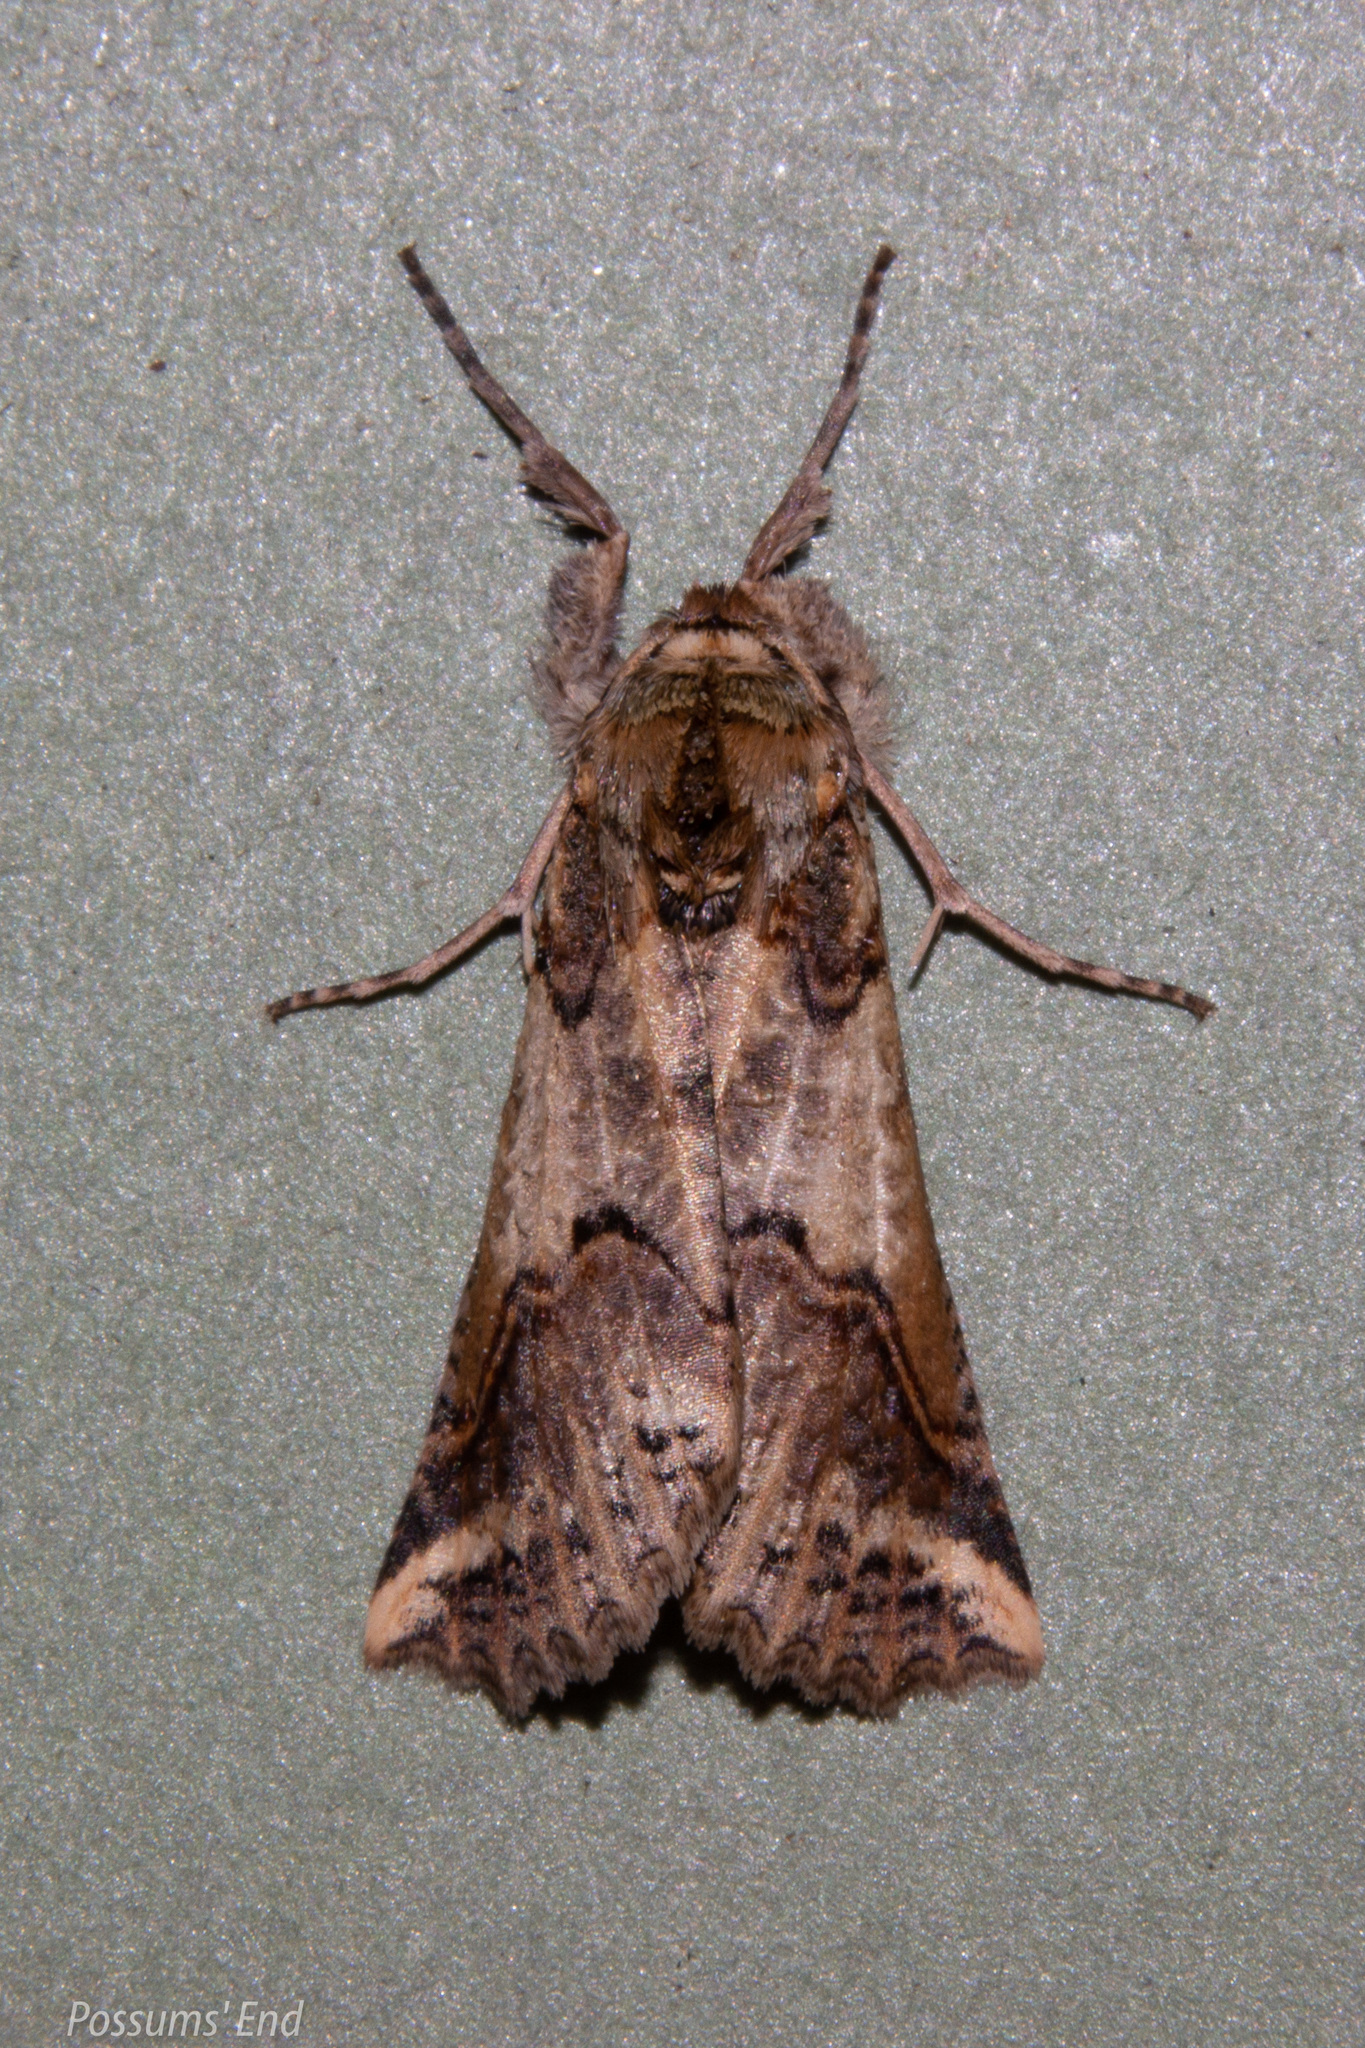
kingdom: Animalia
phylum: Arthropoda
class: Insecta
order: Lepidoptera
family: Geometridae
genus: Declana
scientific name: Declana
